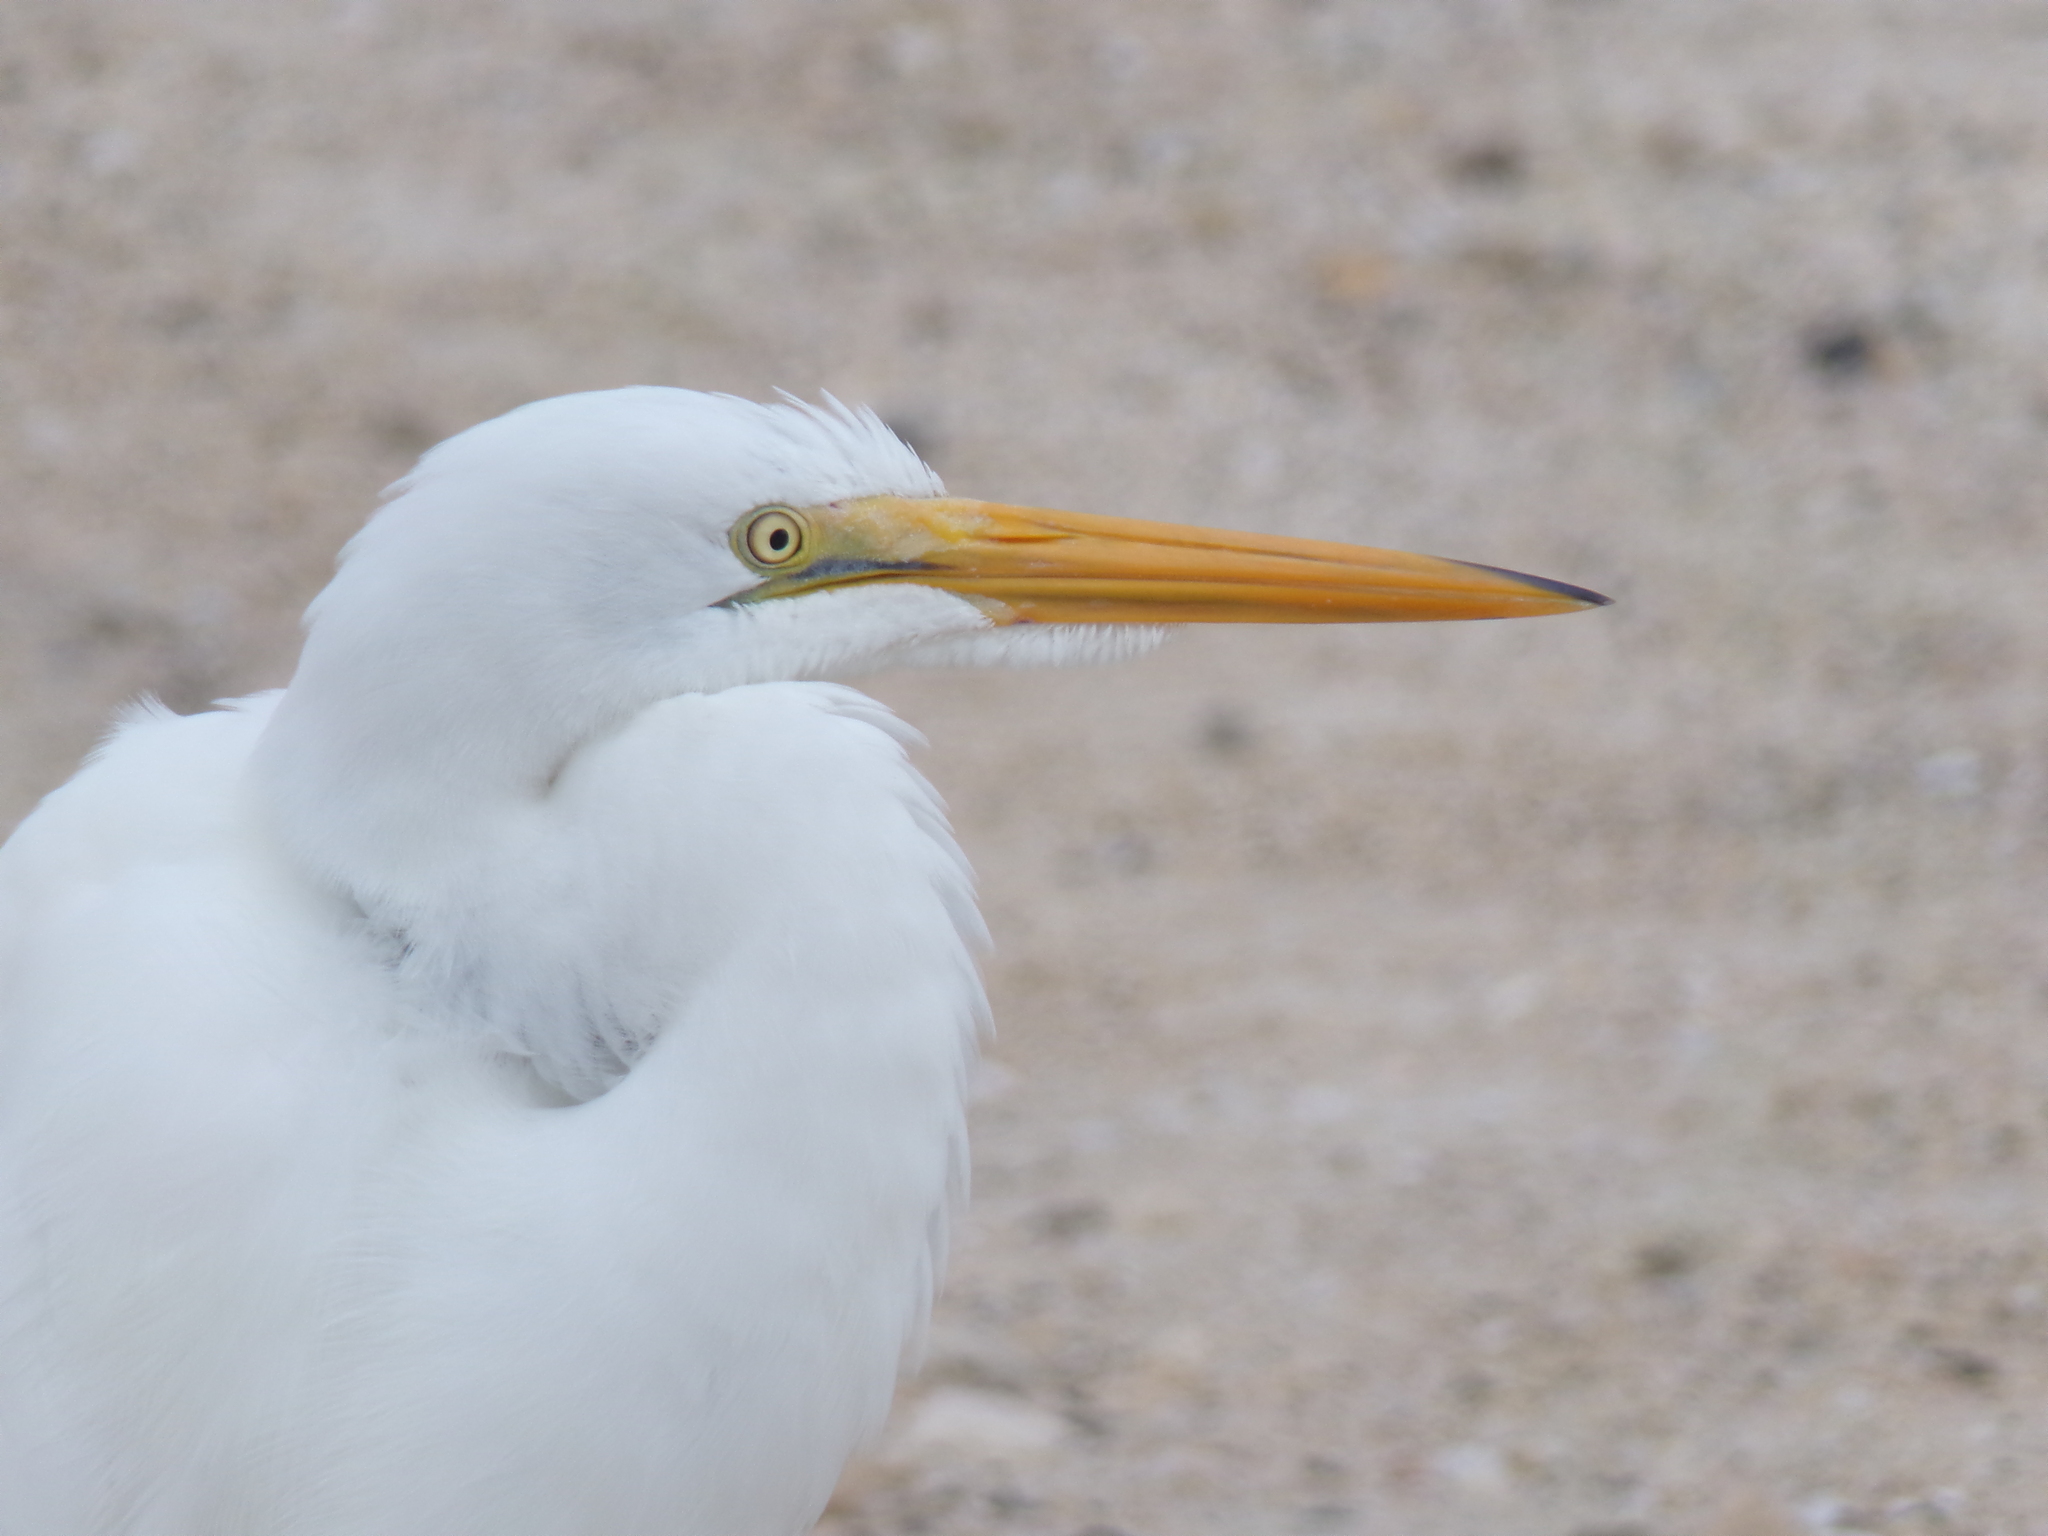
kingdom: Animalia
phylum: Chordata
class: Aves
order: Pelecaniformes
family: Ardeidae
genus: Ardea
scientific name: Ardea alba
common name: Great egret
